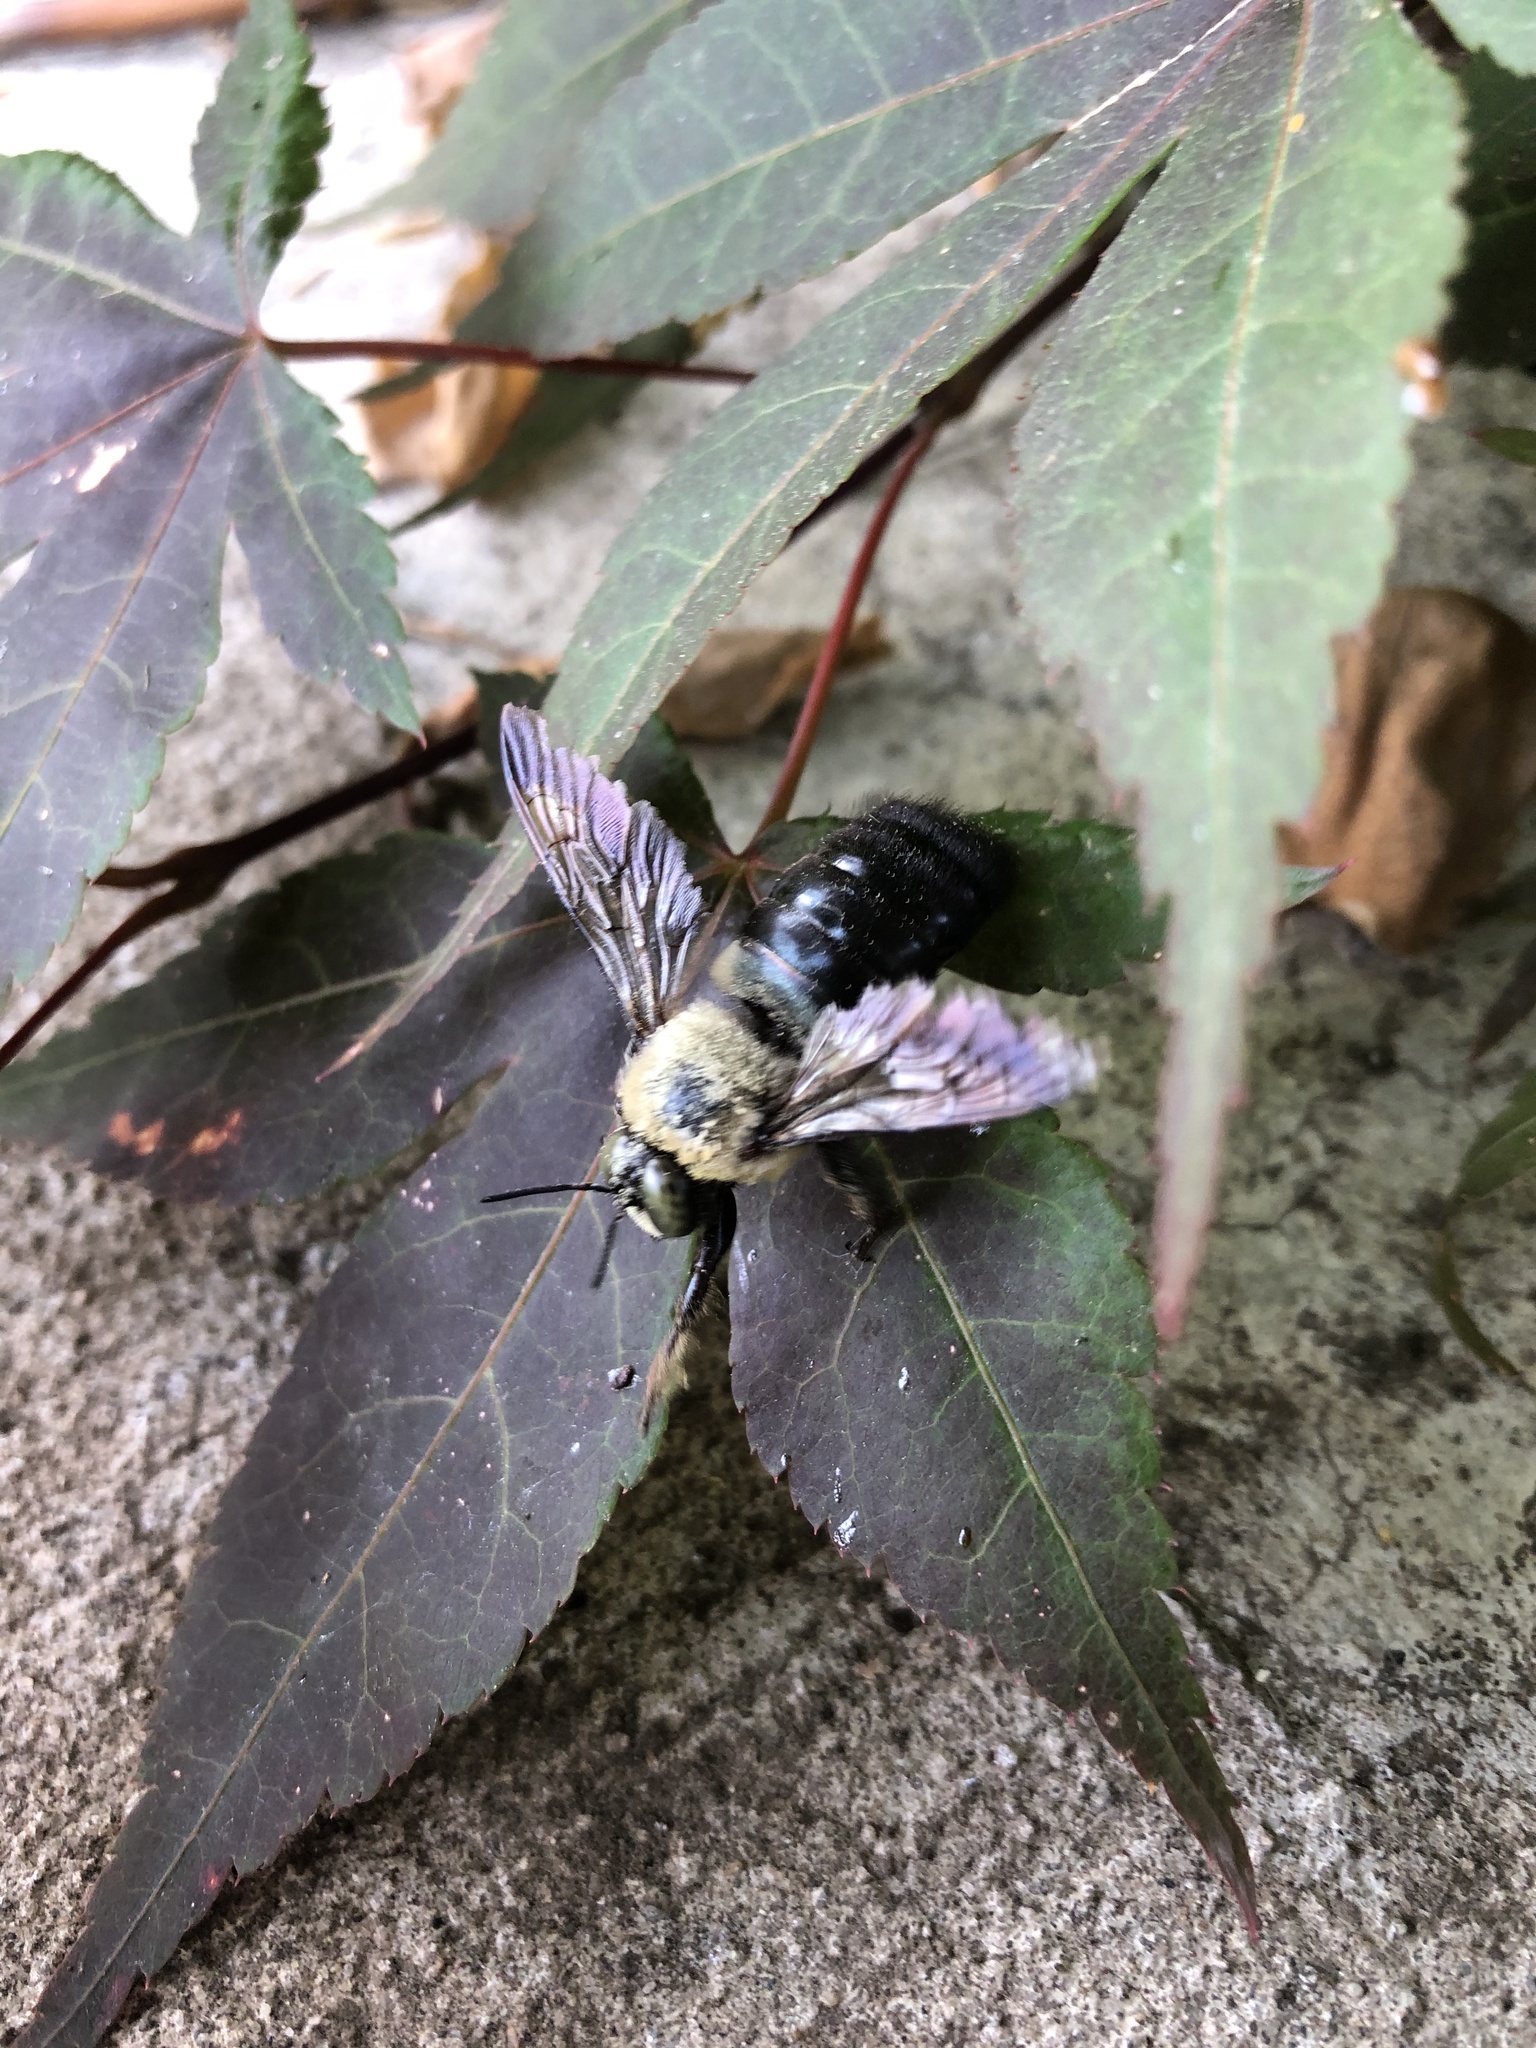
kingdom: Animalia
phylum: Arthropoda
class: Insecta
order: Hymenoptera
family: Apidae
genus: Xylocopa
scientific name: Xylocopa virginica
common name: Carpenter bee
